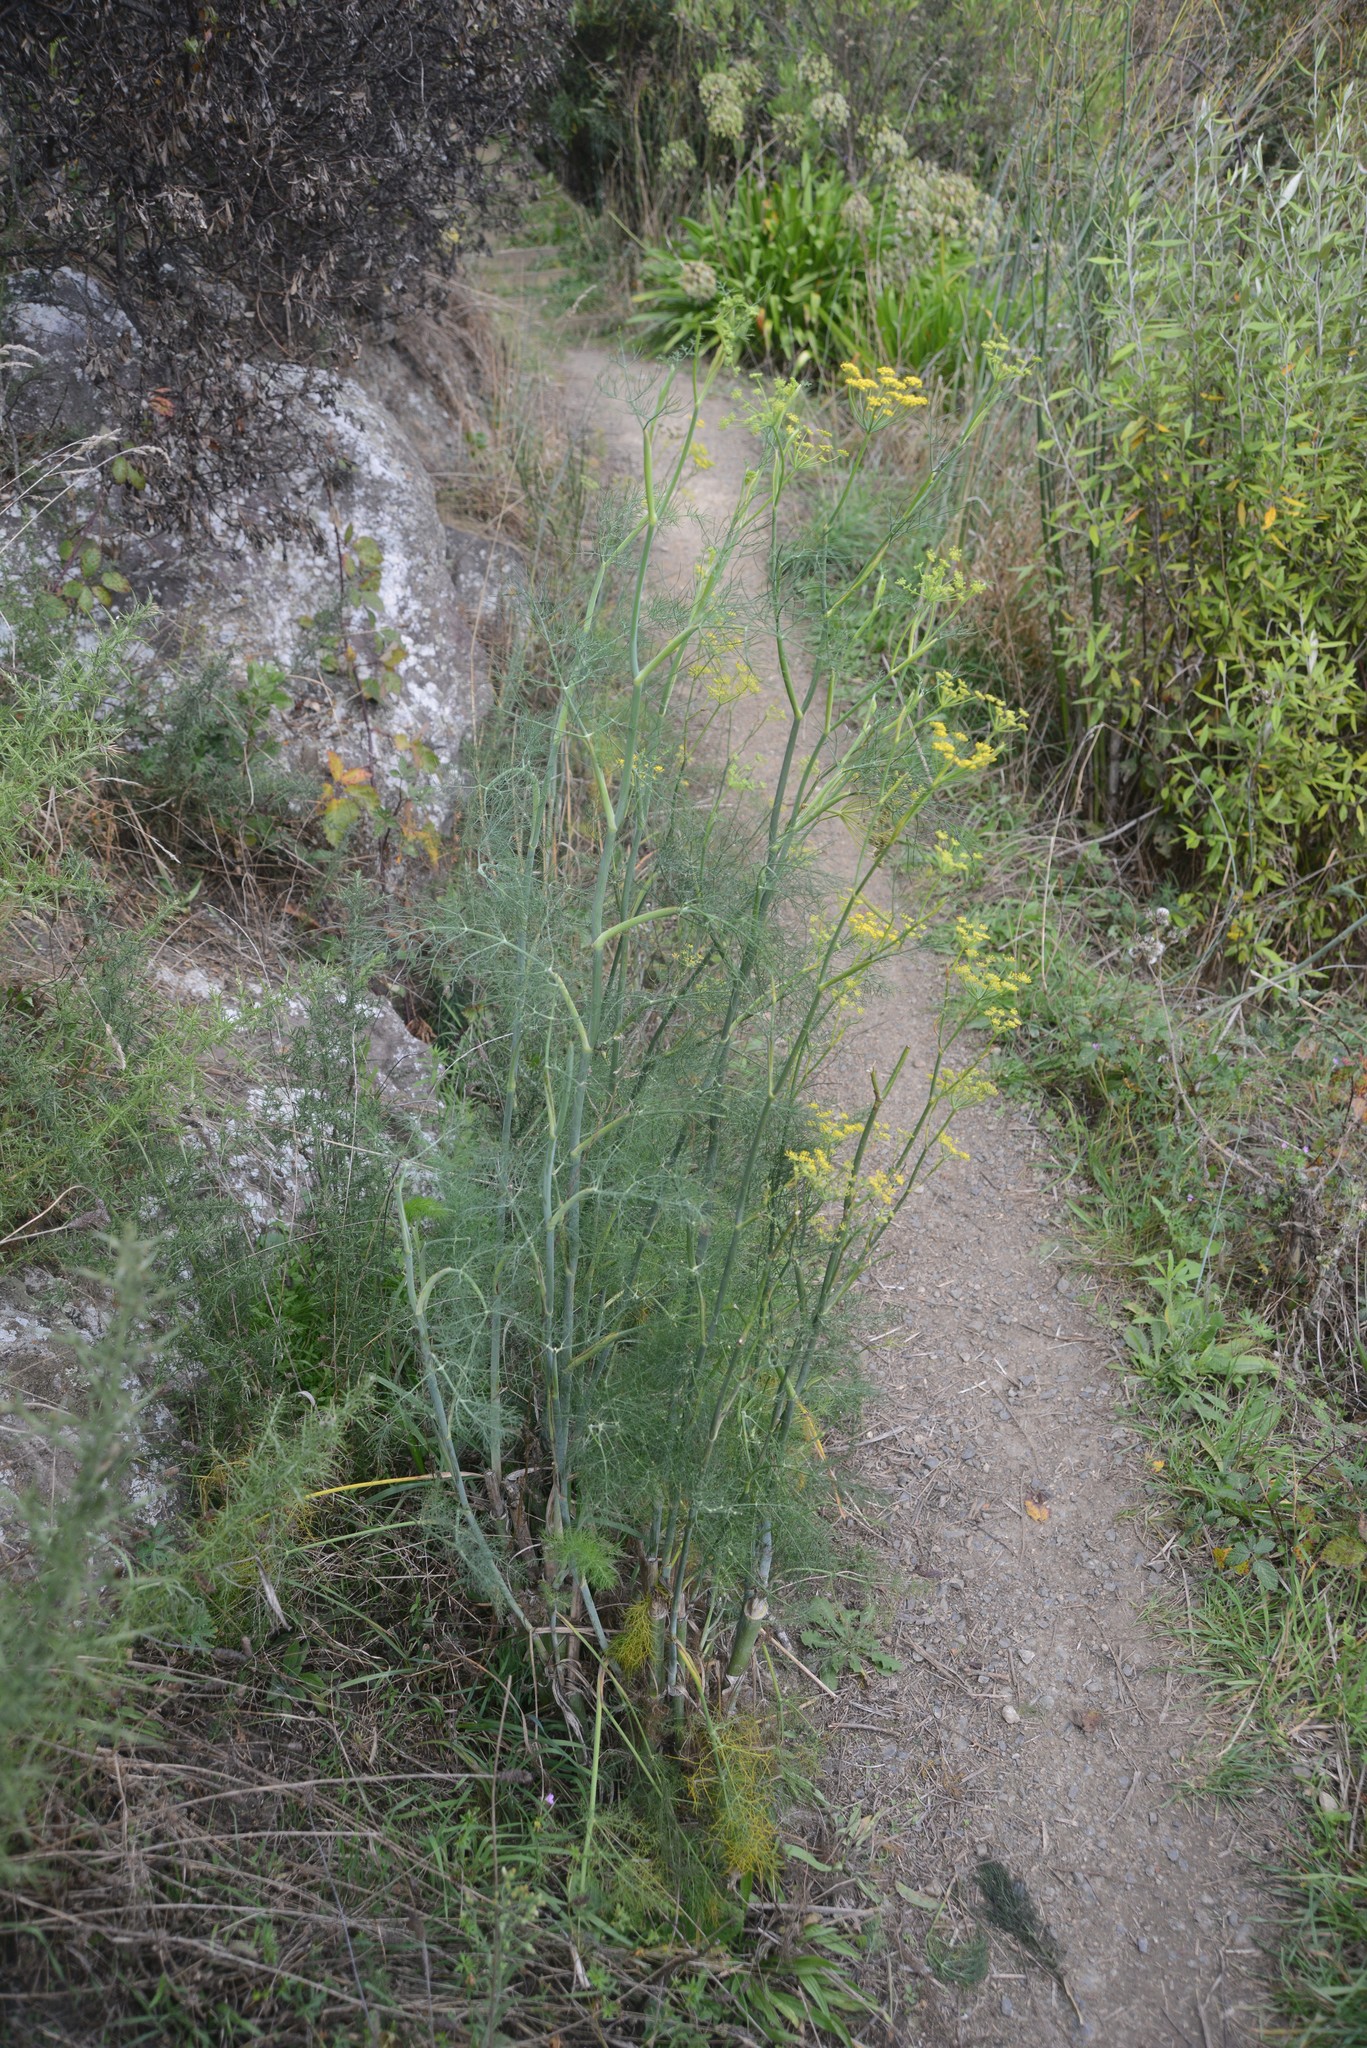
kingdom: Plantae
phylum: Tracheophyta
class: Magnoliopsida
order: Apiales
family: Apiaceae
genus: Foeniculum
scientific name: Foeniculum vulgare
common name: Fennel
